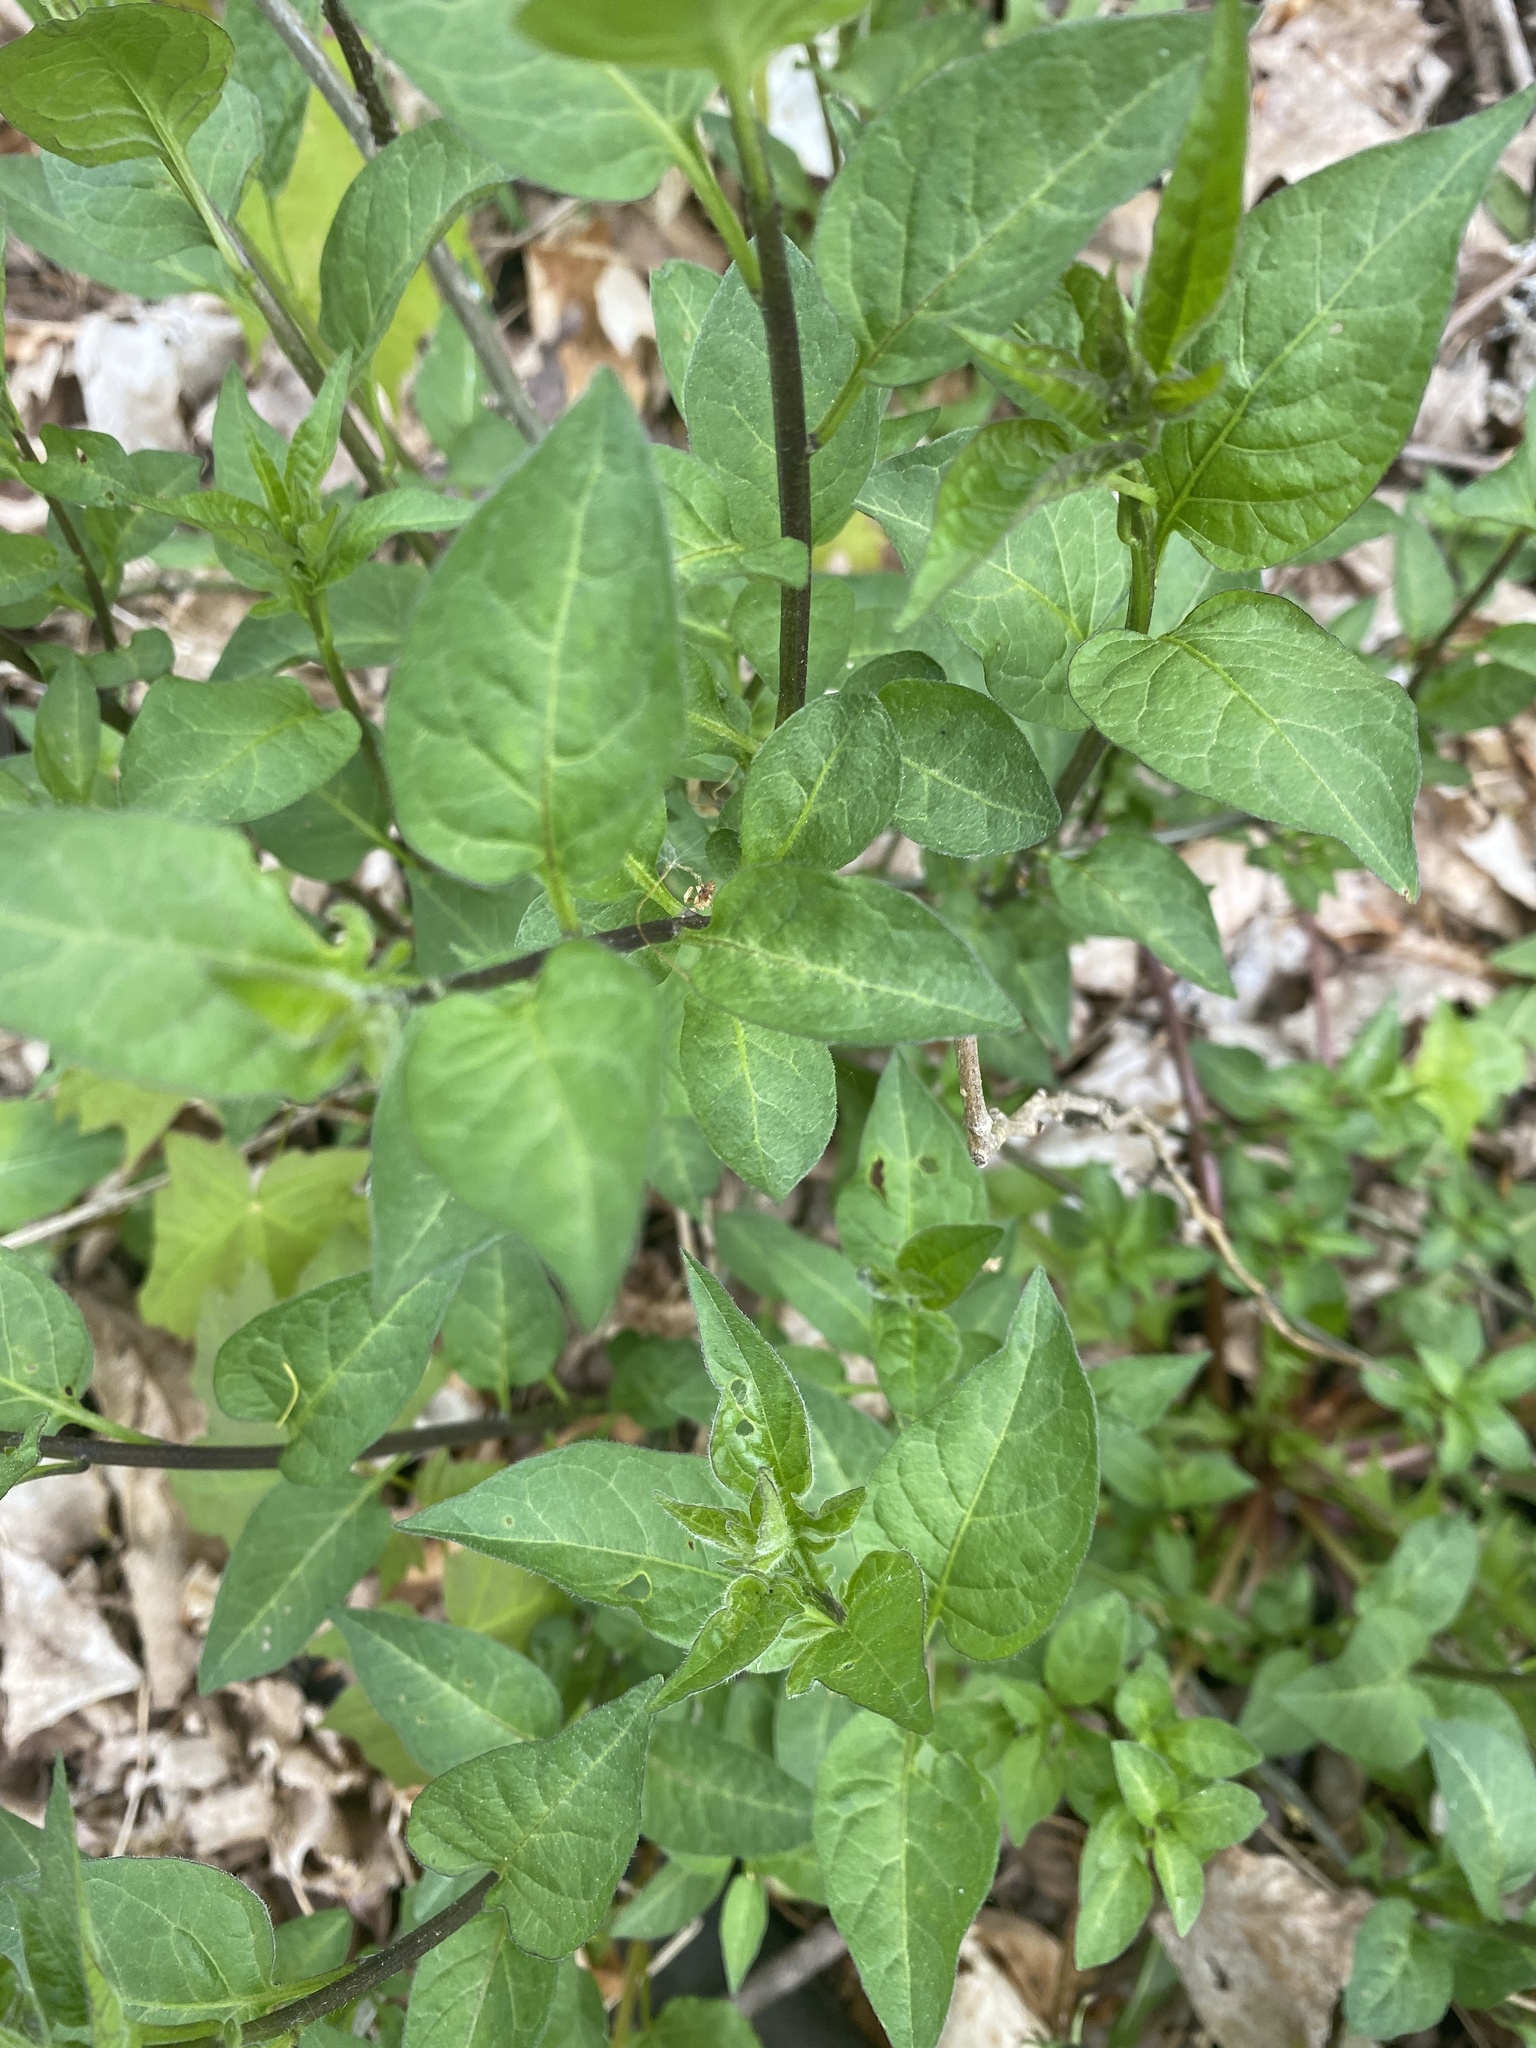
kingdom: Plantae
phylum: Tracheophyta
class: Magnoliopsida
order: Solanales
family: Solanaceae
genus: Solanum
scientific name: Solanum dulcamara
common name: Climbing nightshade
